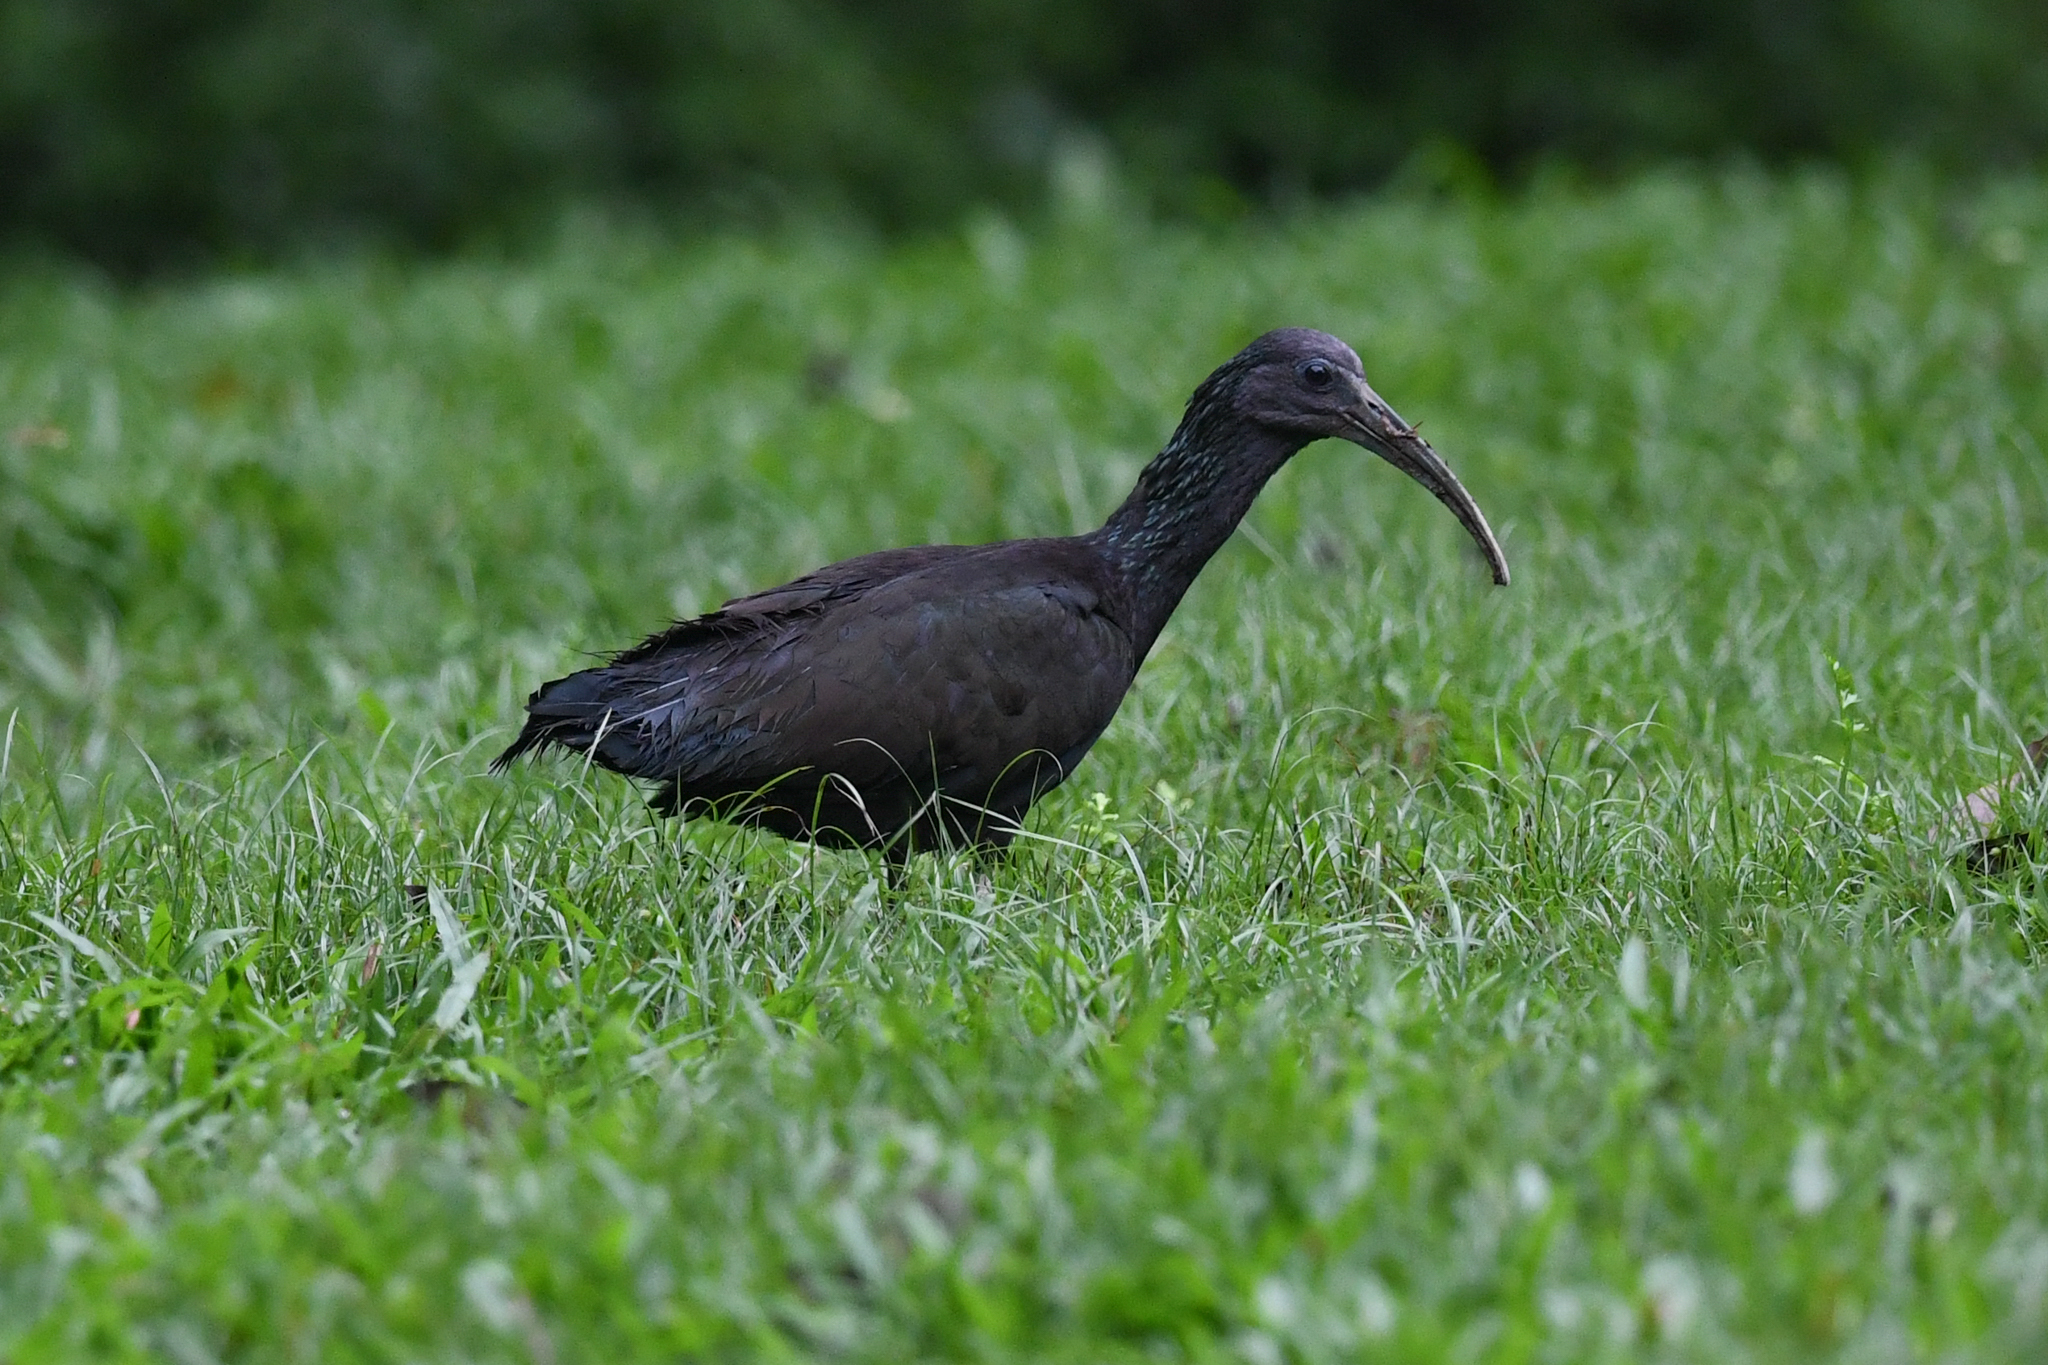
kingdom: Animalia
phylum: Chordata
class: Aves
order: Pelecaniformes
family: Threskiornithidae
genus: Mesembrinibis
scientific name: Mesembrinibis cayennensis
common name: Green ibis
